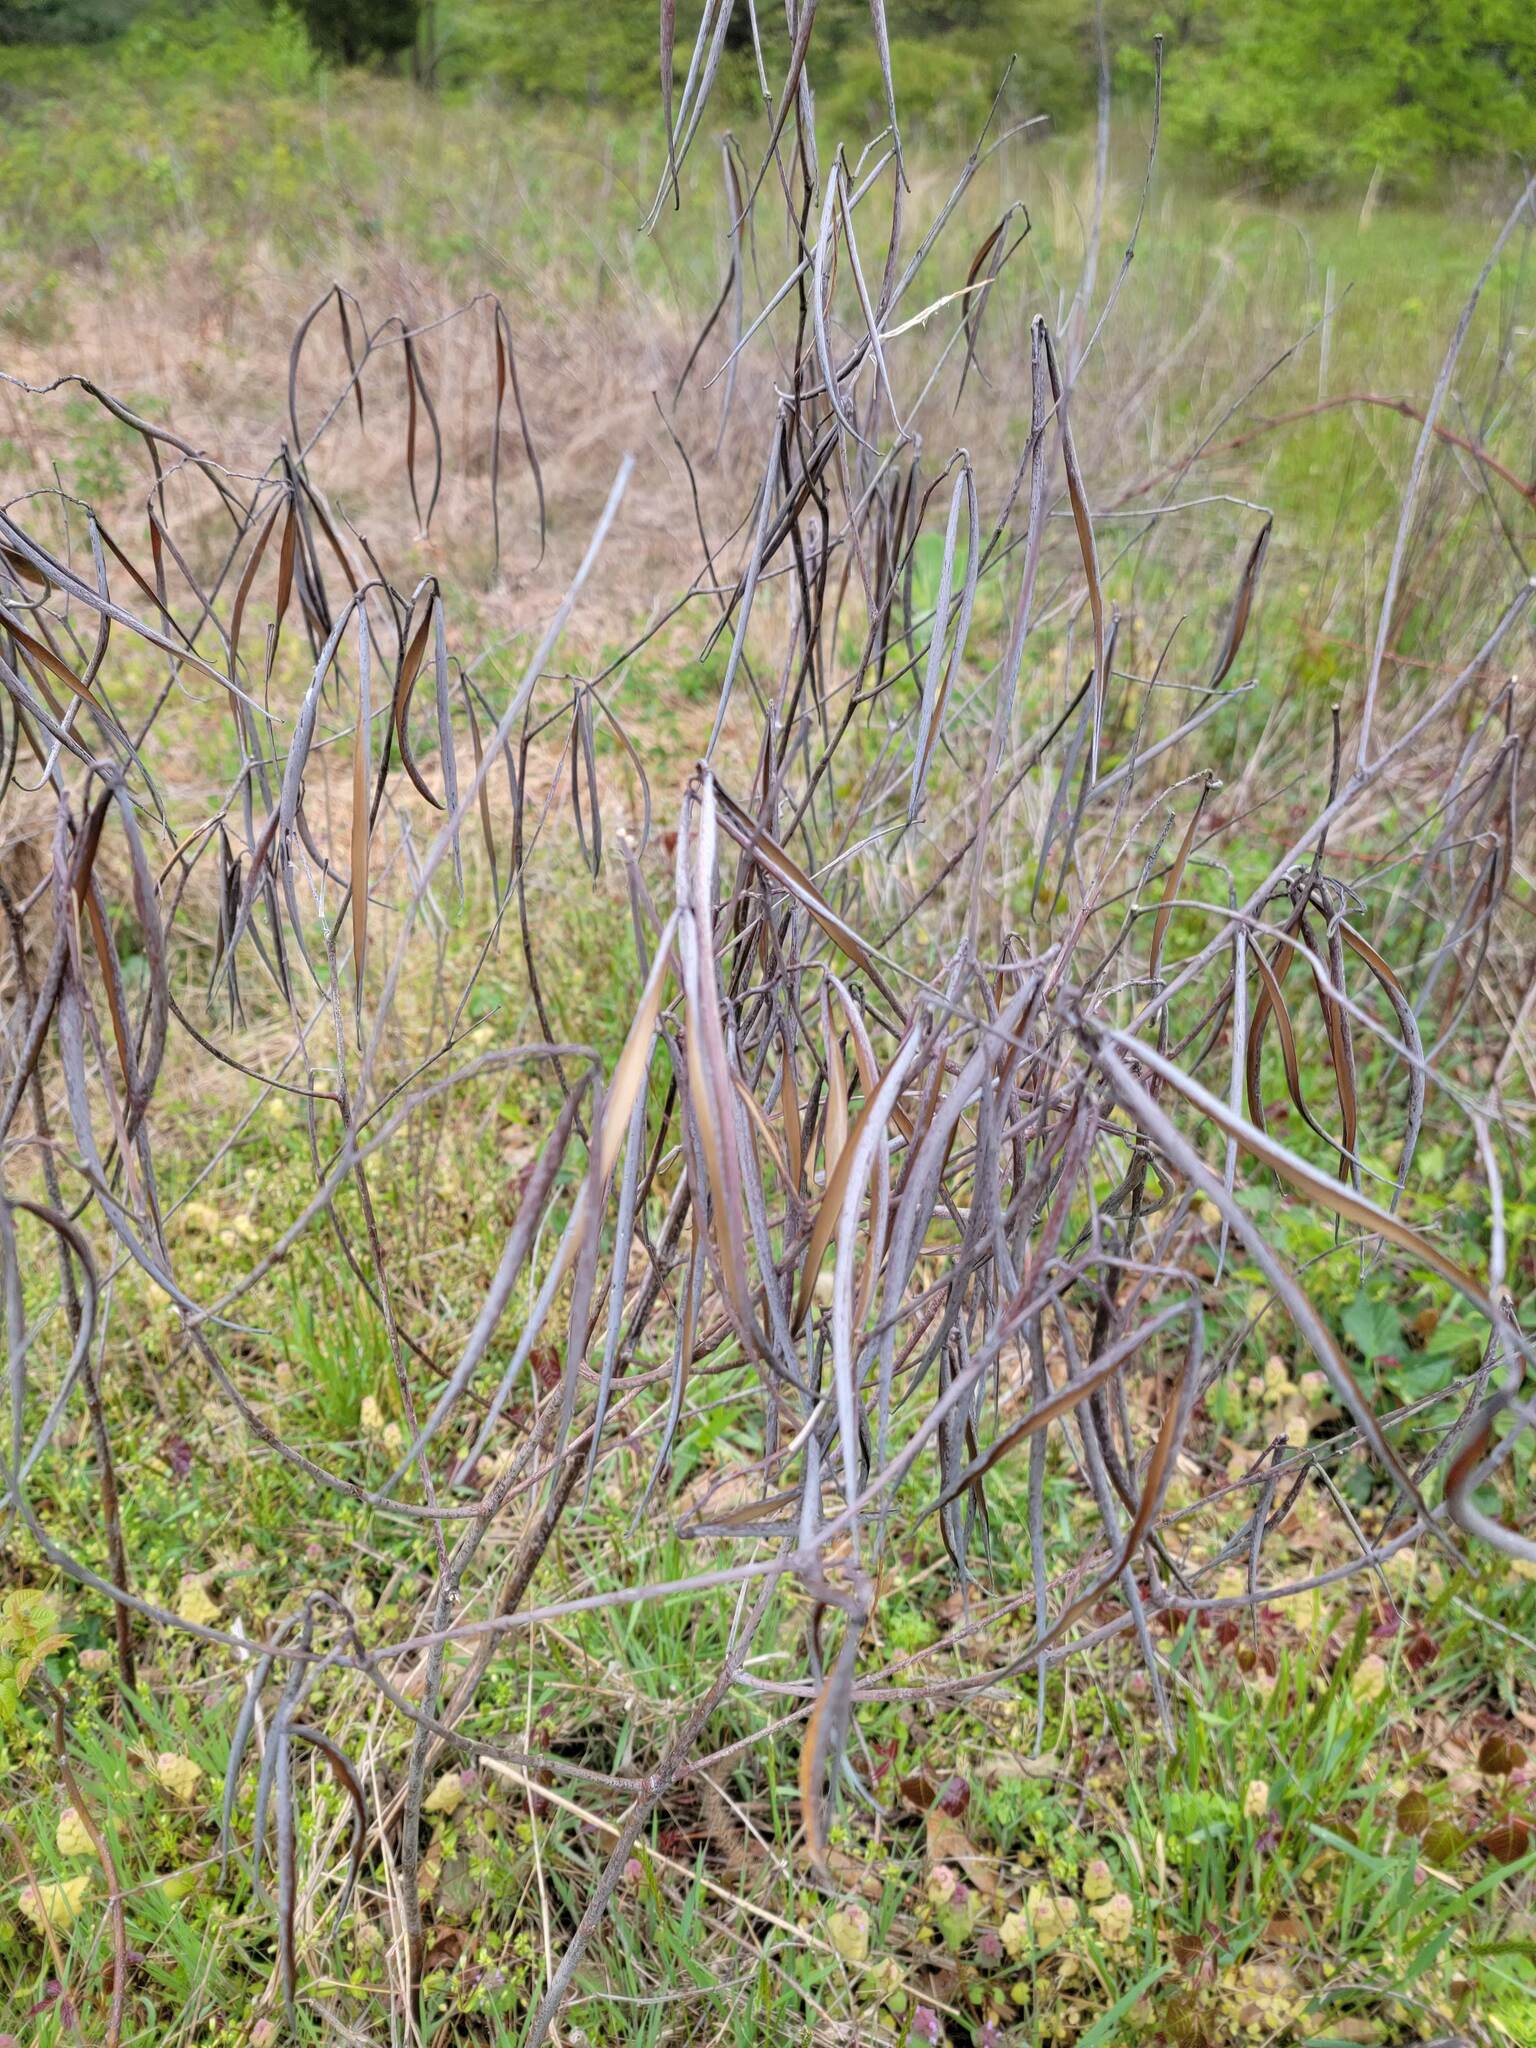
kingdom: Plantae
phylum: Tracheophyta
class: Magnoliopsida
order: Gentianales
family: Apocynaceae
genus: Apocynum
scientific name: Apocynum cannabinum
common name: Hemp dogbane
